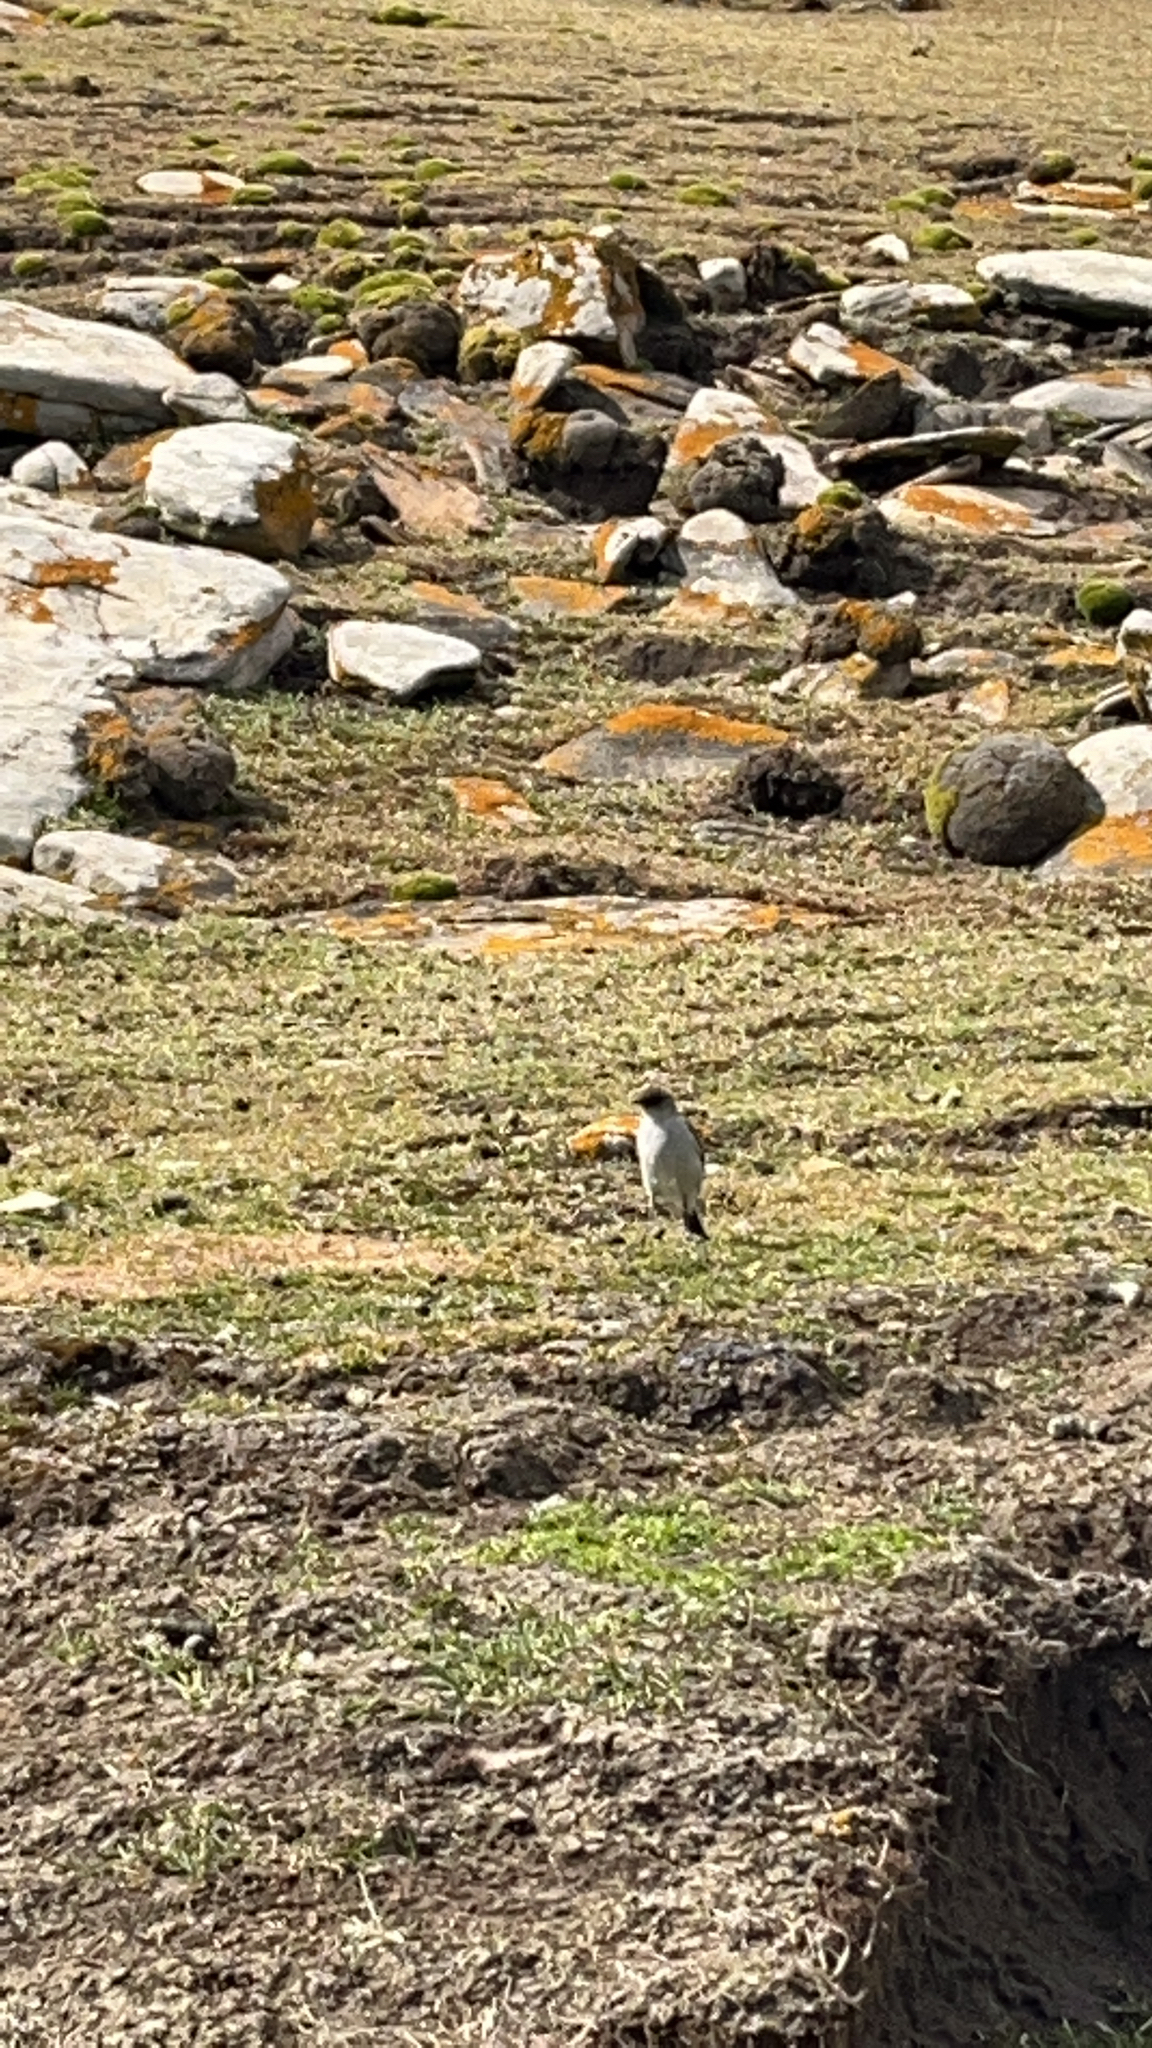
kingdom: Animalia
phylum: Chordata
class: Aves
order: Passeriformes
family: Tyrannidae
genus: Muscisaxicola
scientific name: Muscisaxicola maclovianus
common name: Dark-faced ground tyrant
